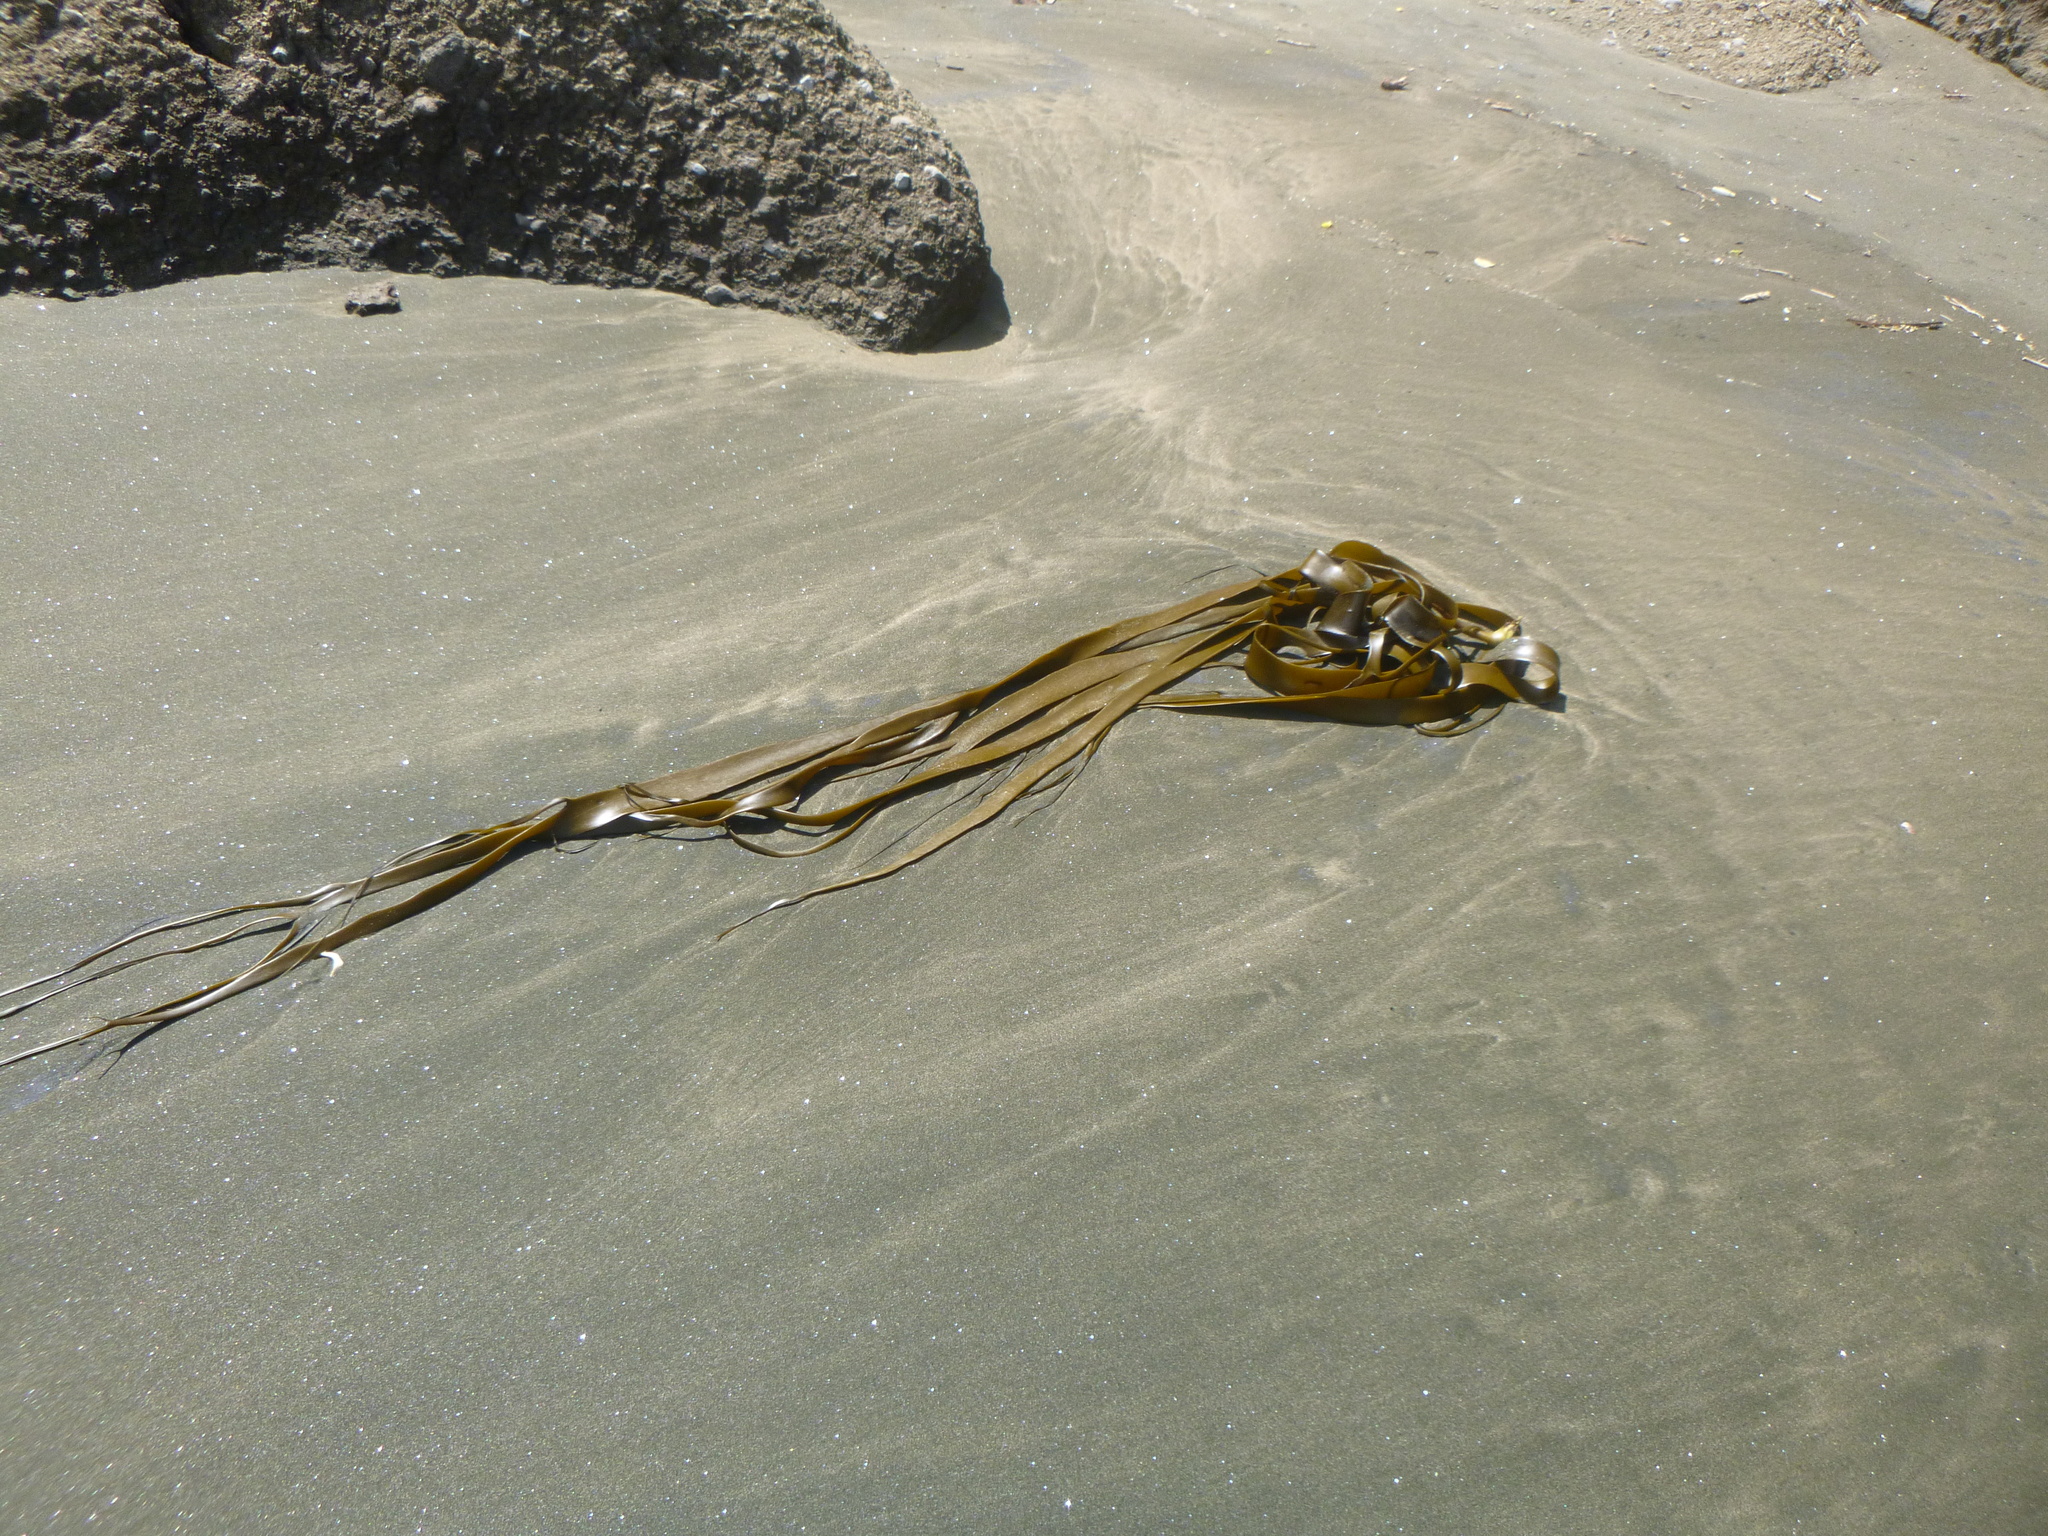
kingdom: Chromista
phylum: Ochrophyta
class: Phaeophyceae
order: Fucales
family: Durvillaeaceae
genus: Durvillaea
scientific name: Durvillaea antarctica
